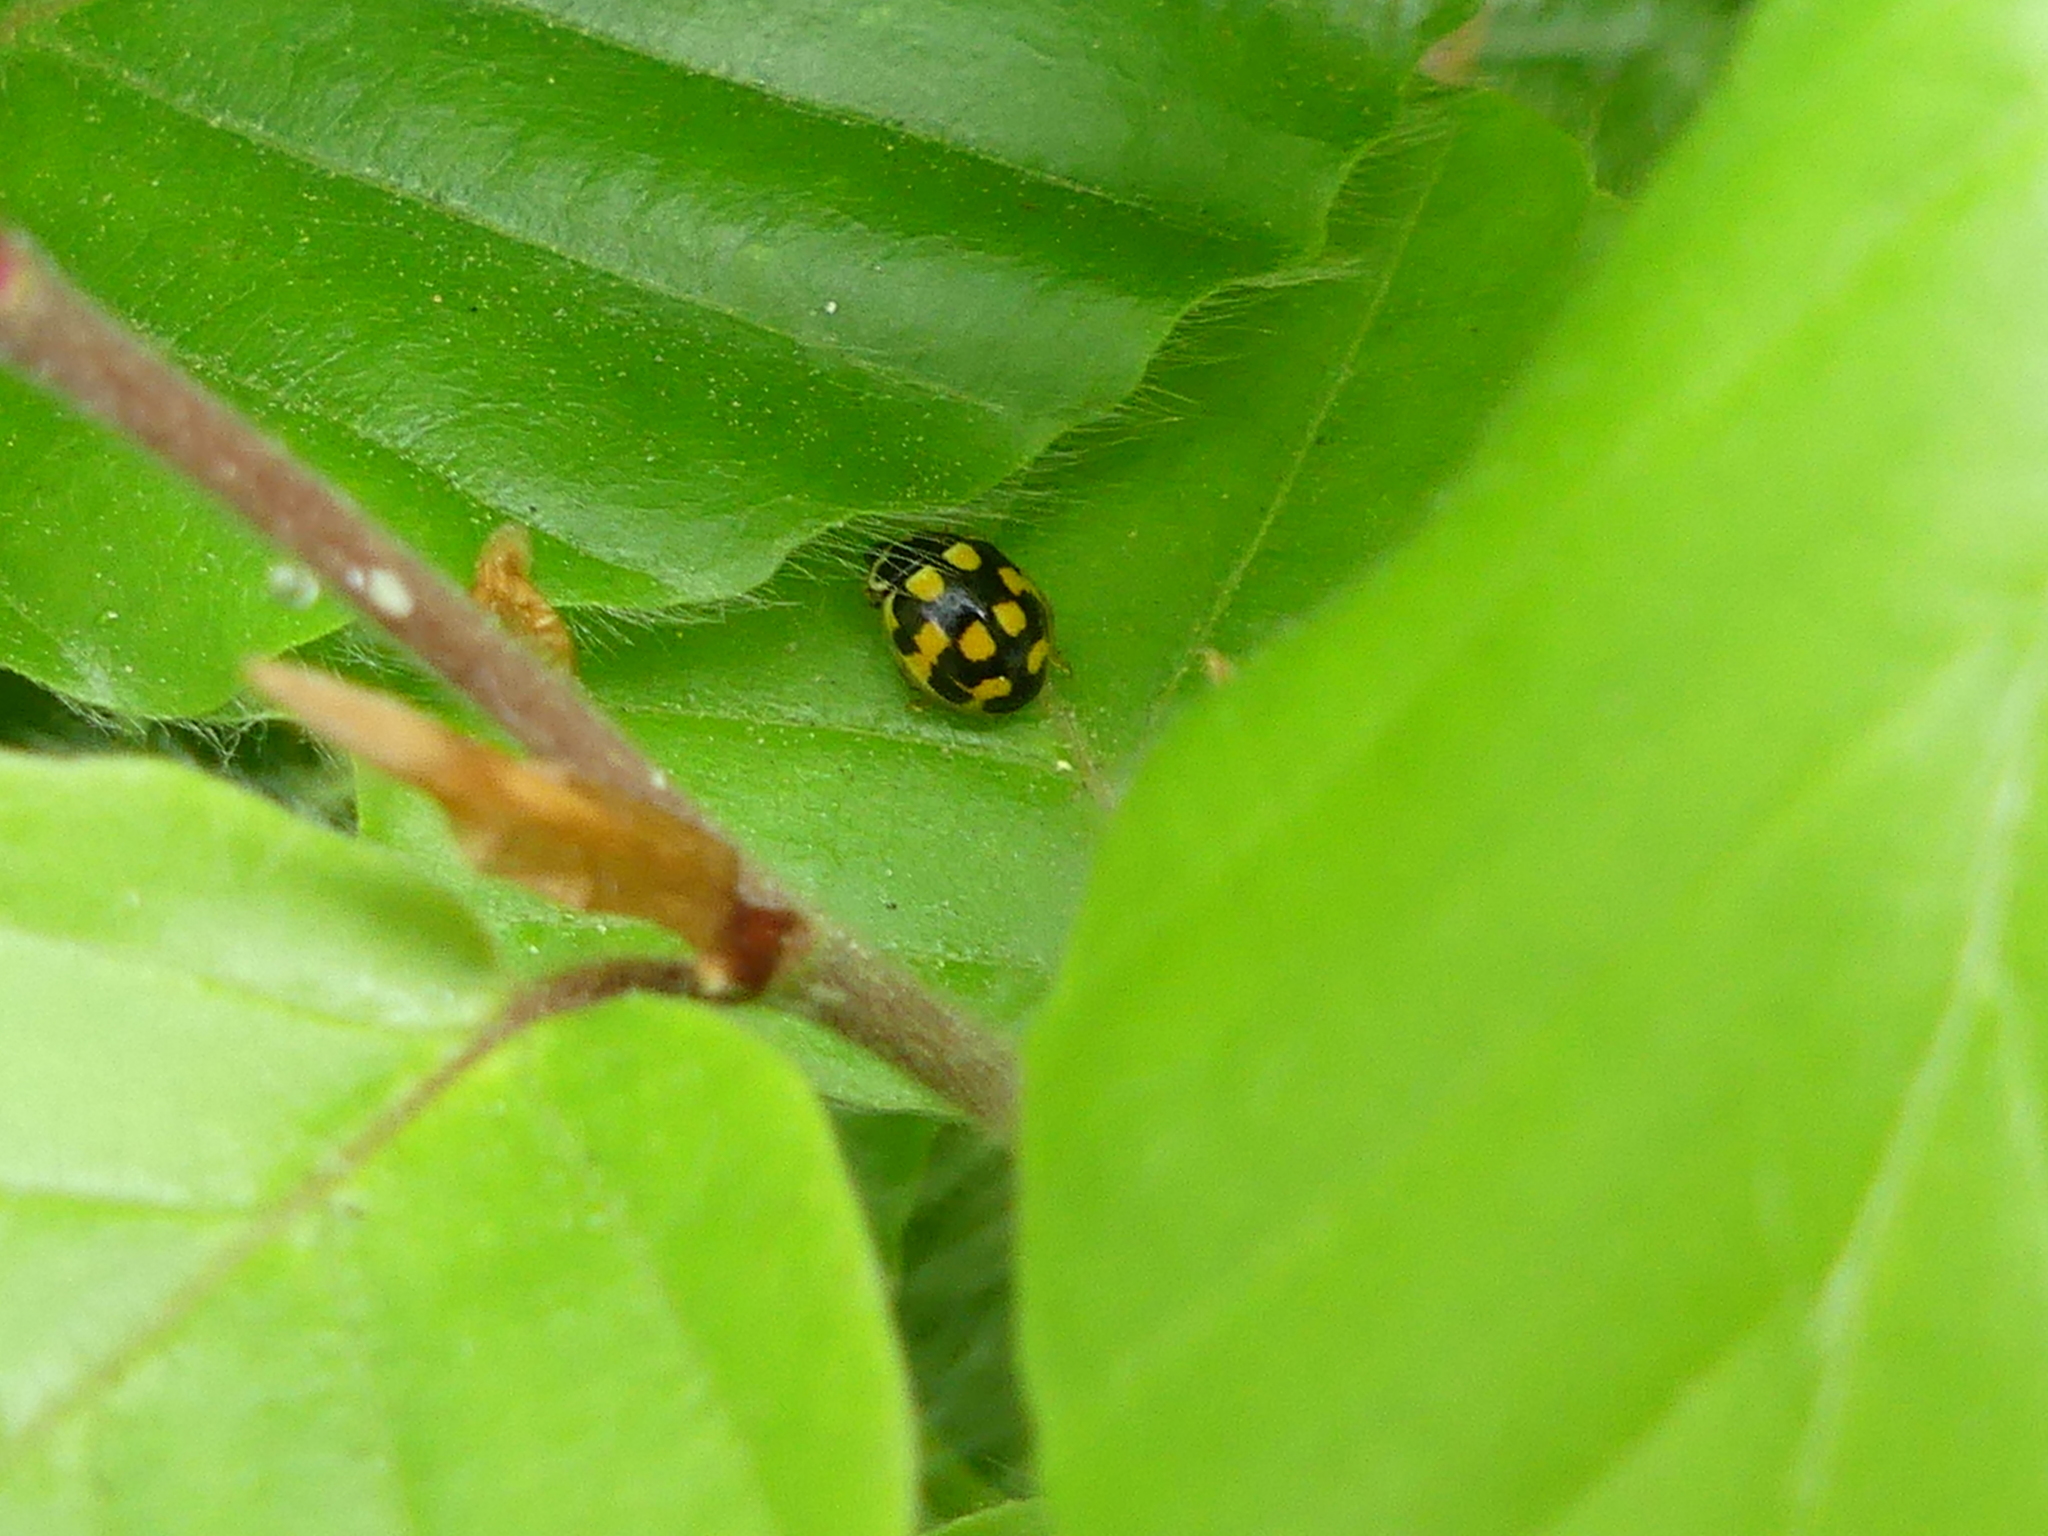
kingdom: Animalia
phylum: Arthropoda
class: Insecta
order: Coleoptera
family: Coccinellidae
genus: Propylaea
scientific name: Propylaea quatuordecimpunctata
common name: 14-spotted ladybird beetle
